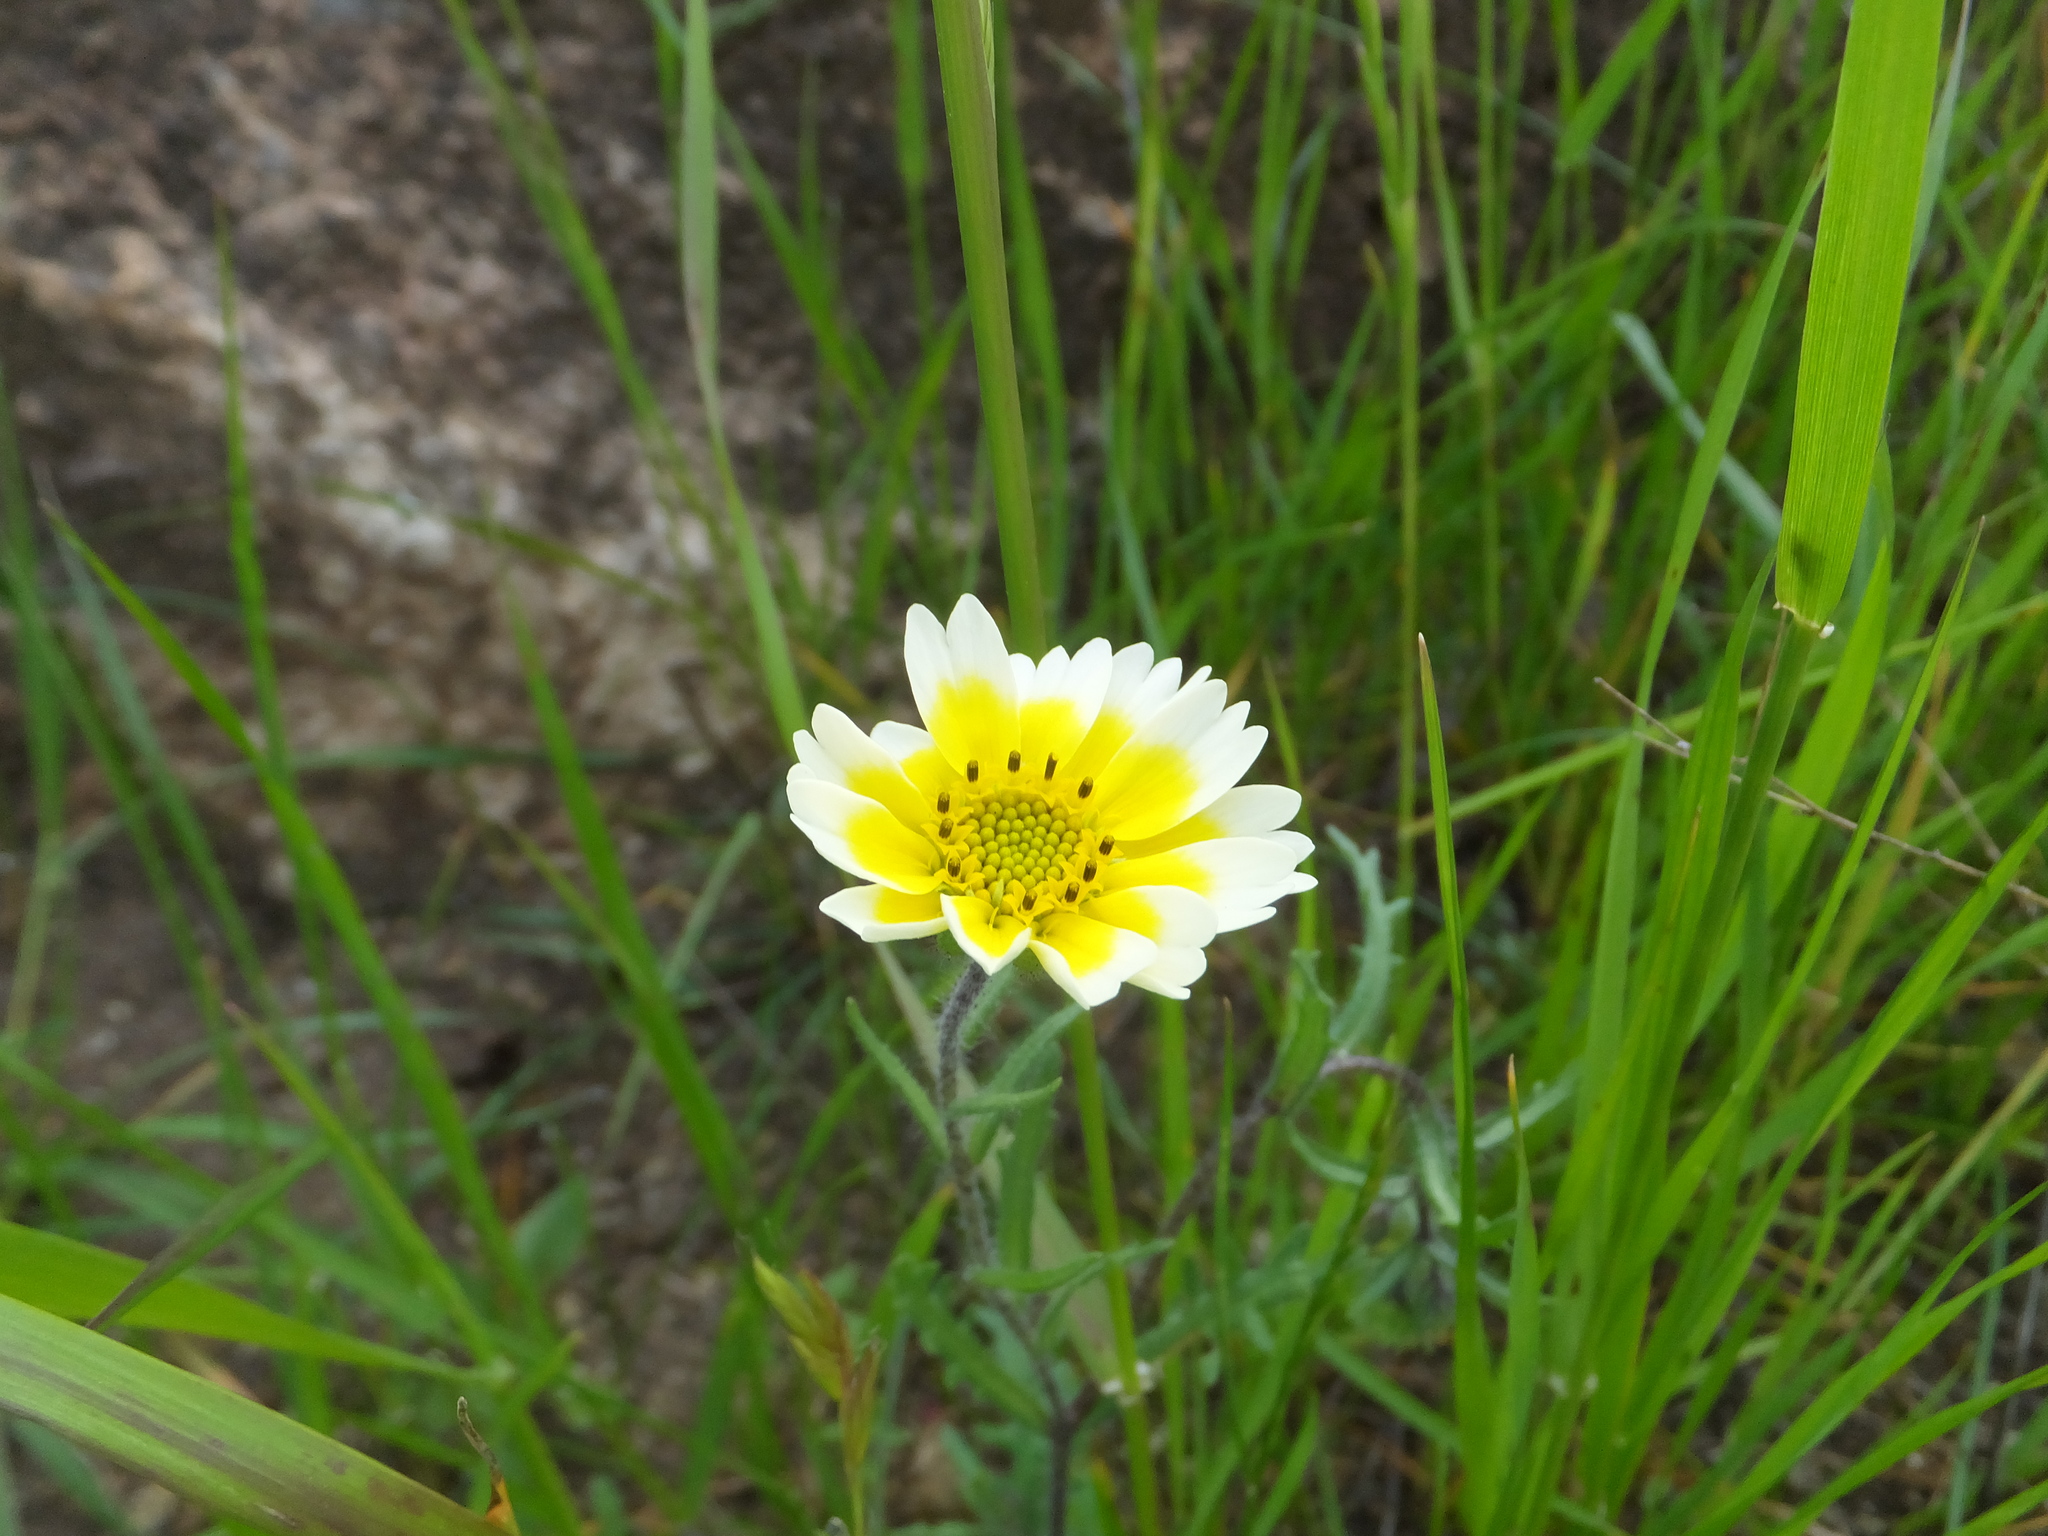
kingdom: Plantae
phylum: Tracheophyta
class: Magnoliopsida
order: Asterales
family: Asteraceae
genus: Layia
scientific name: Layia gaillardioides
